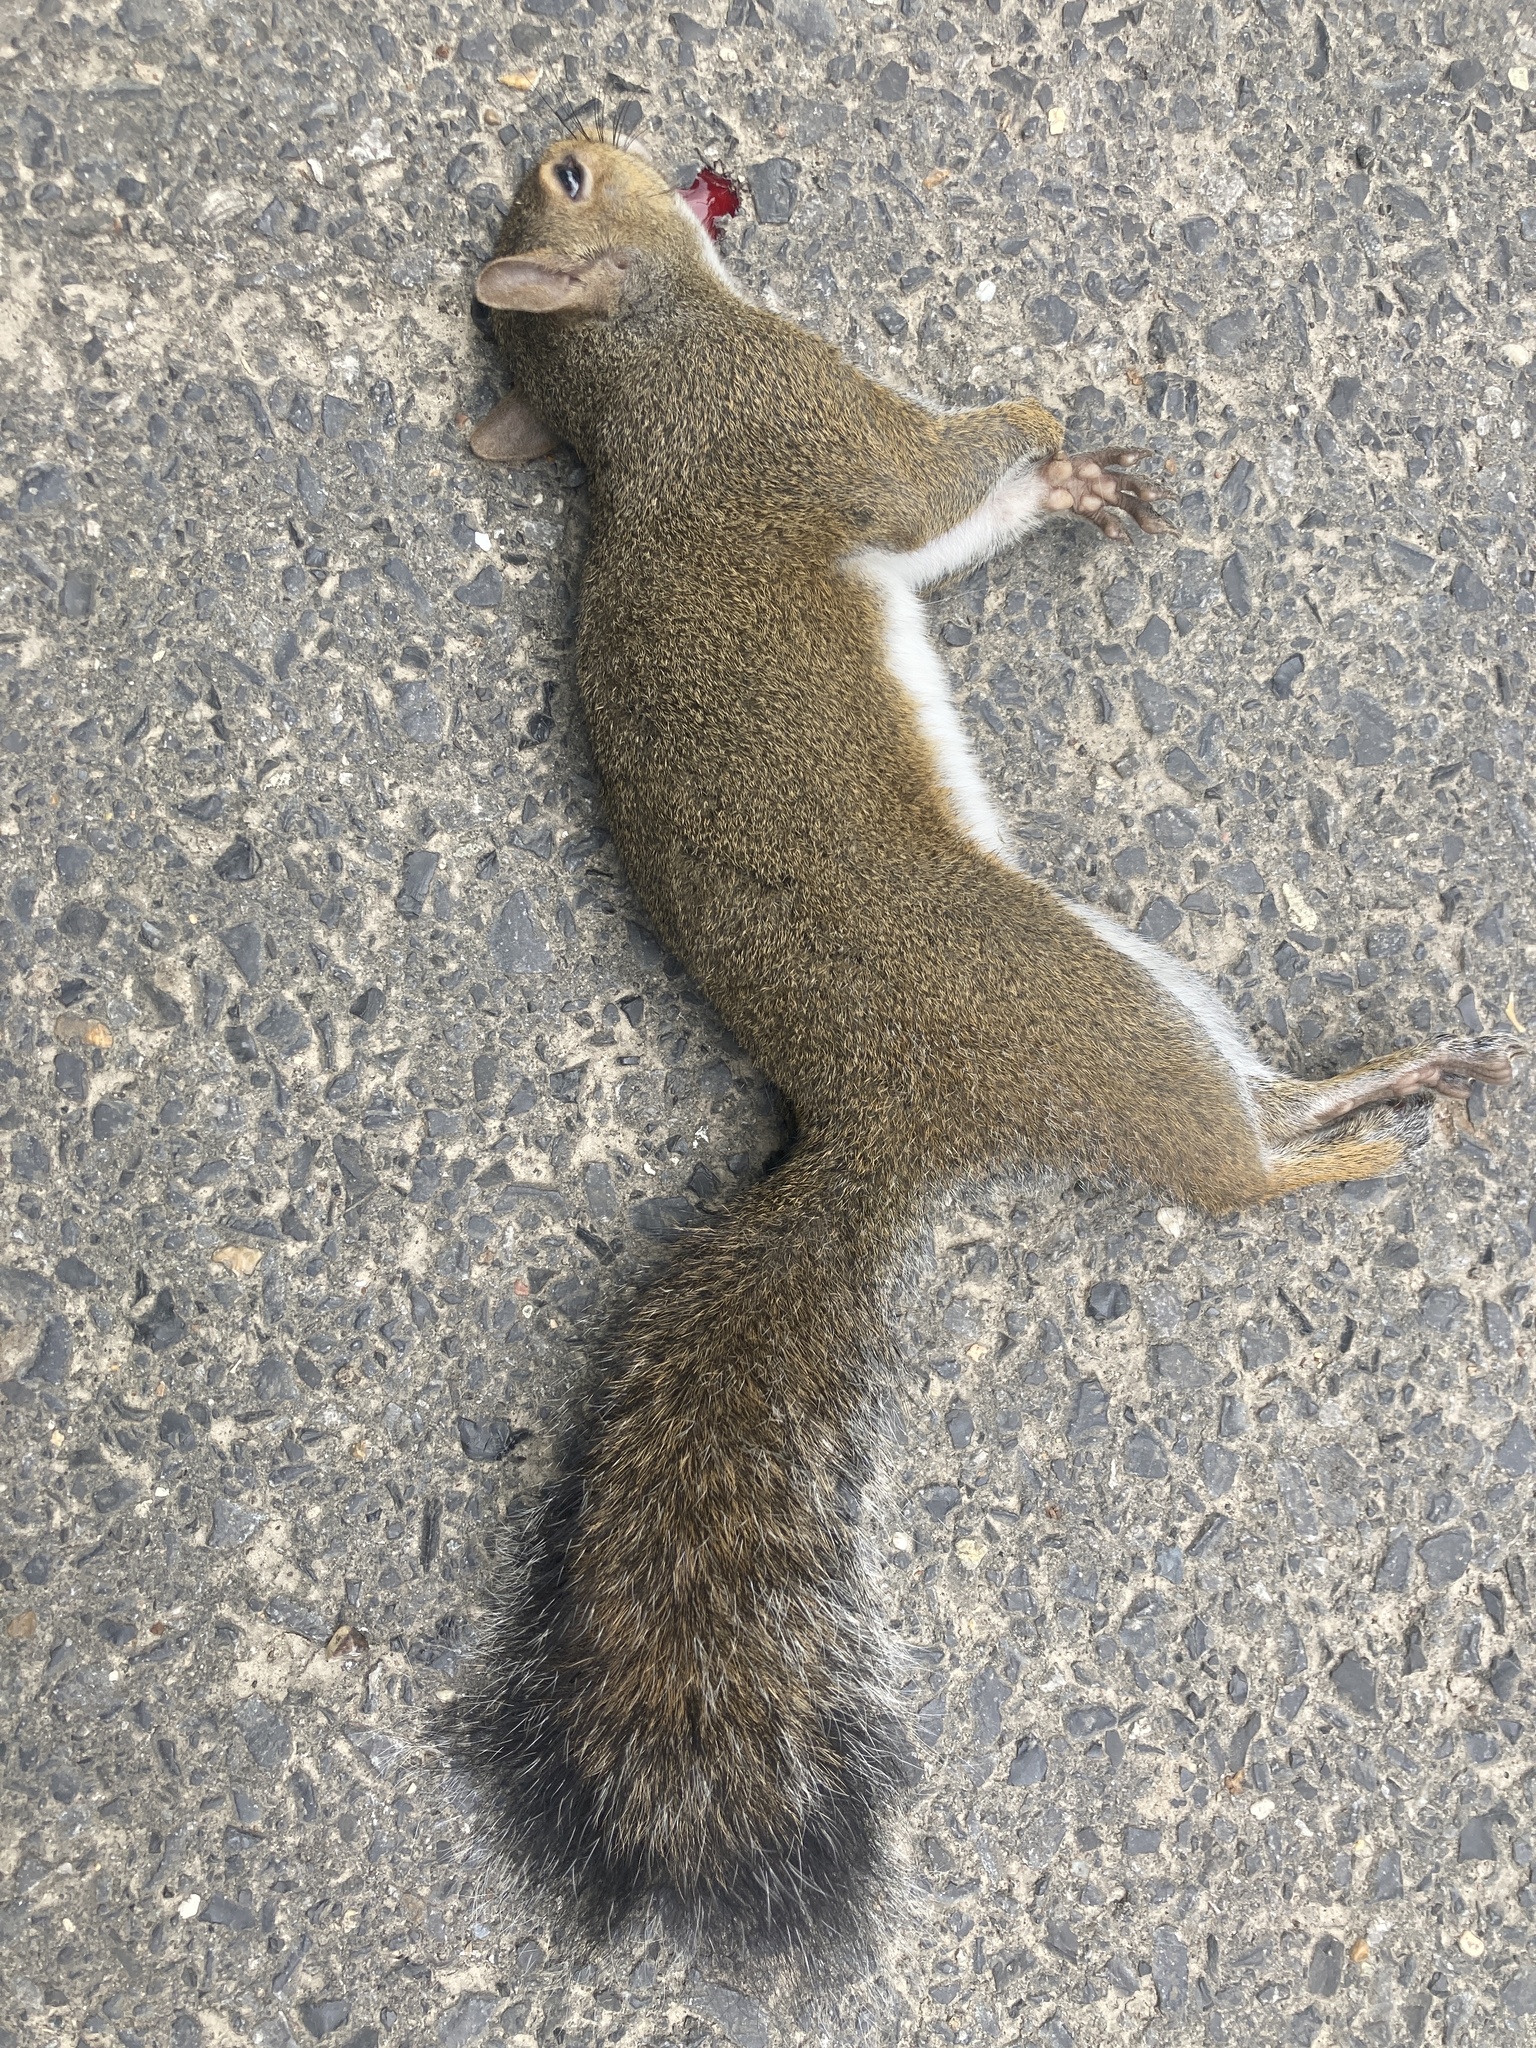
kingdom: Animalia
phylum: Chordata
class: Mammalia
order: Rodentia
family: Sciuridae
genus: Sciurus
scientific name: Sciurus carolinensis
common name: Eastern gray squirrel
